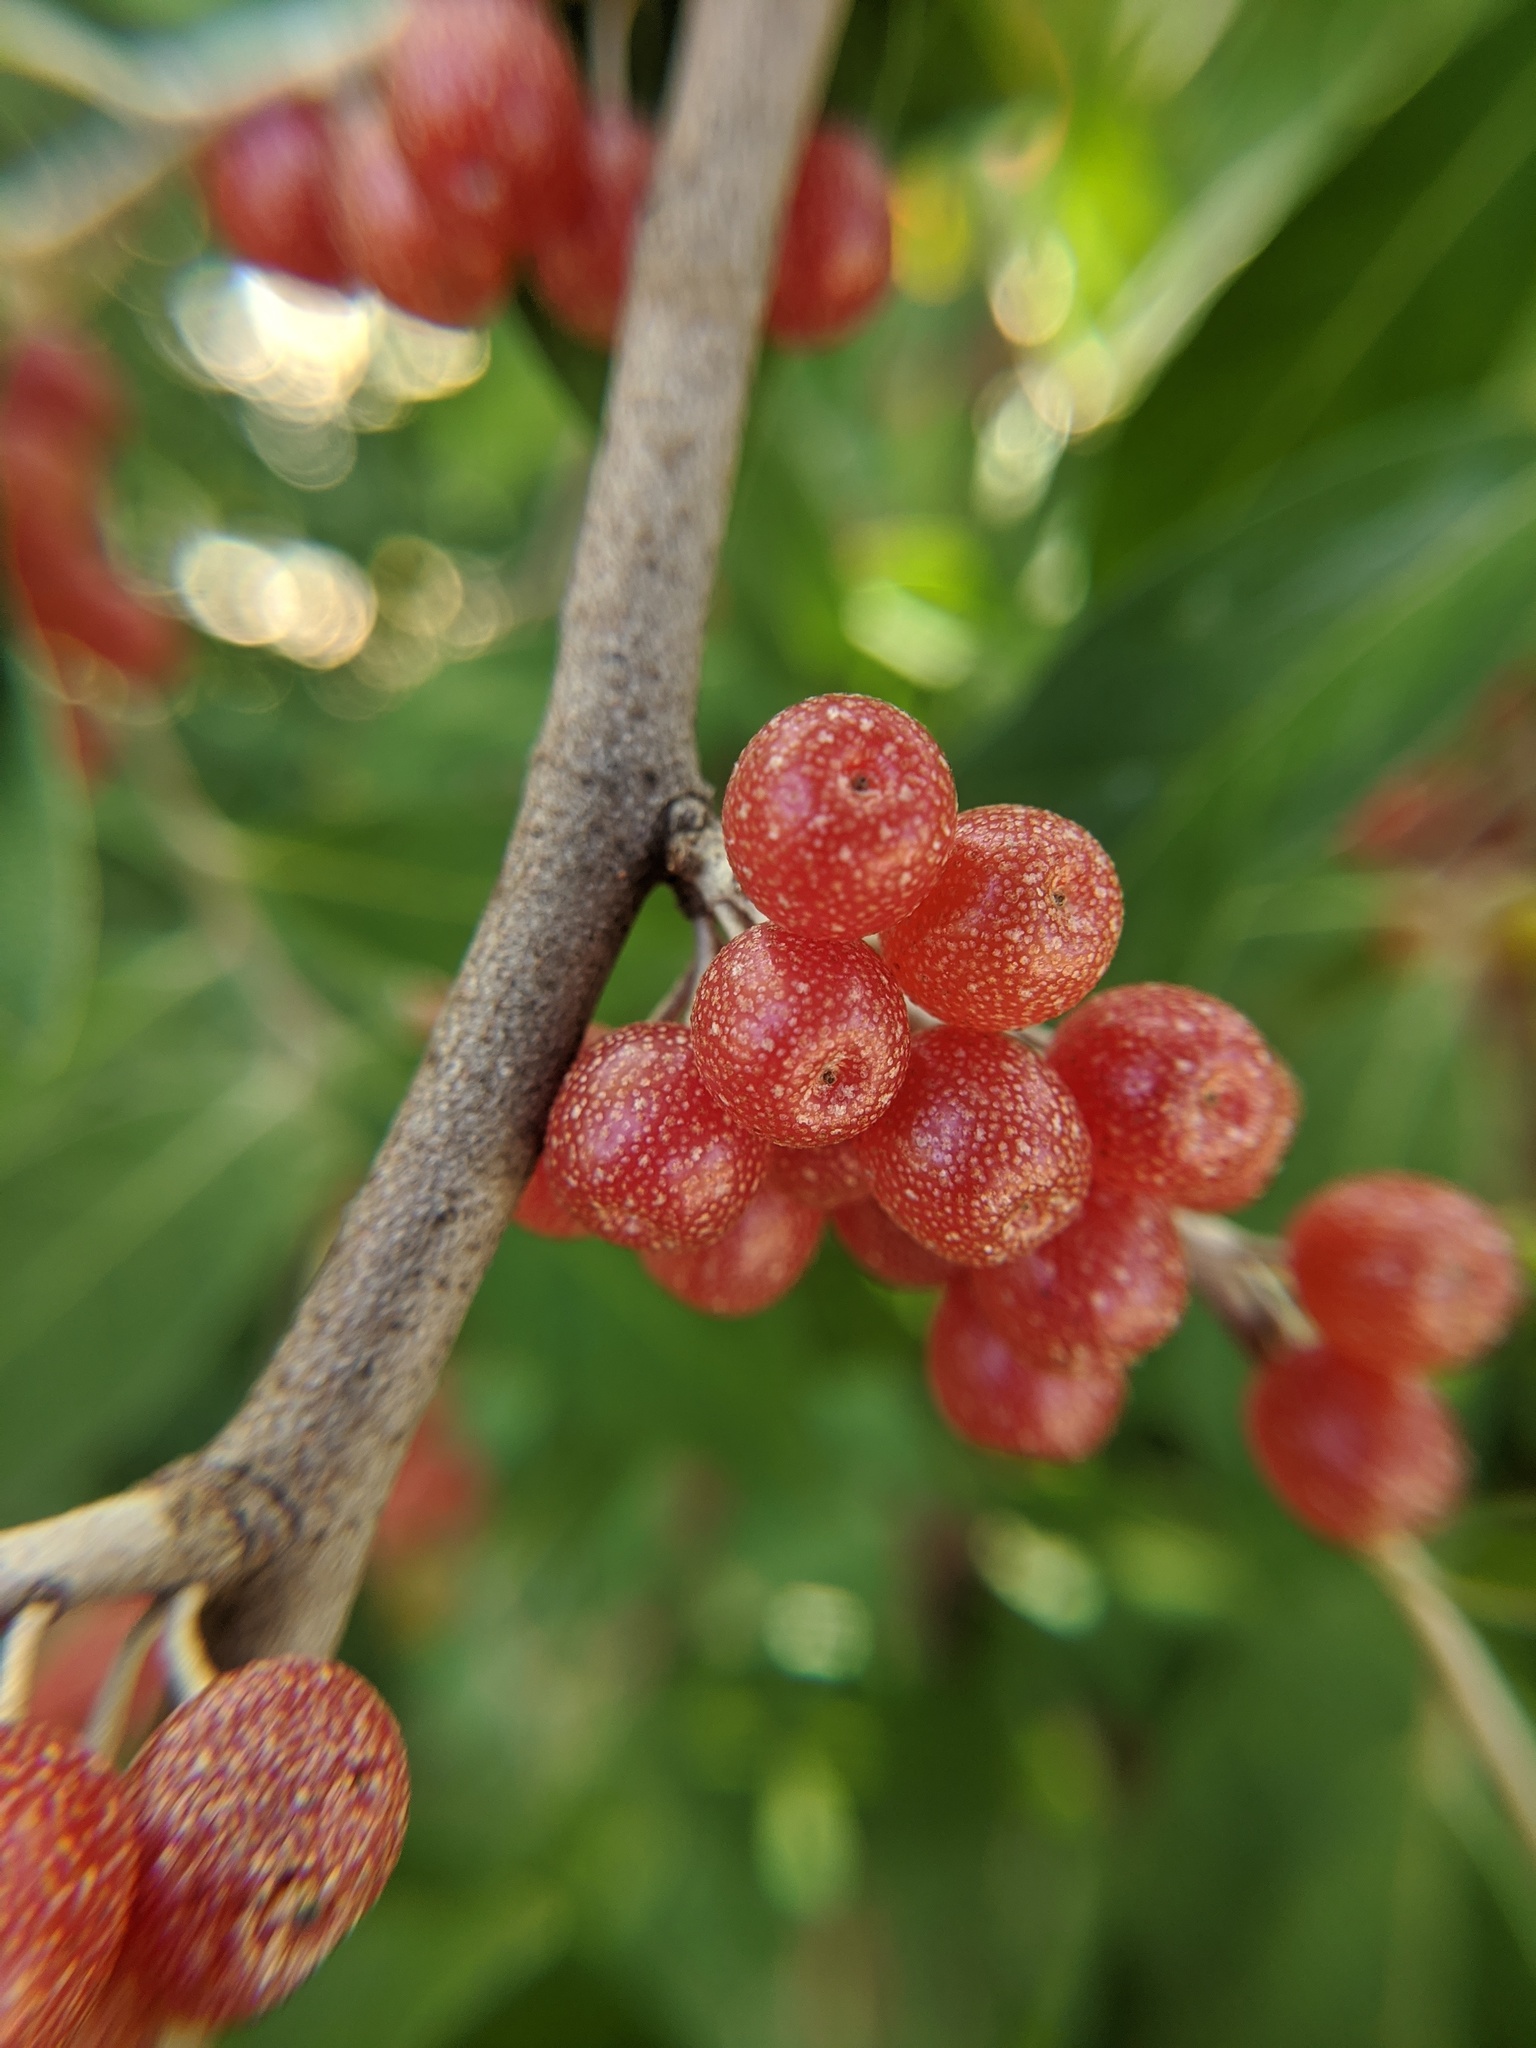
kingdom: Plantae
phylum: Tracheophyta
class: Magnoliopsida
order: Rosales
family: Elaeagnaceae
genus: Elaeagnus
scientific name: Elaeagnus umbellata
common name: Autumn olive
